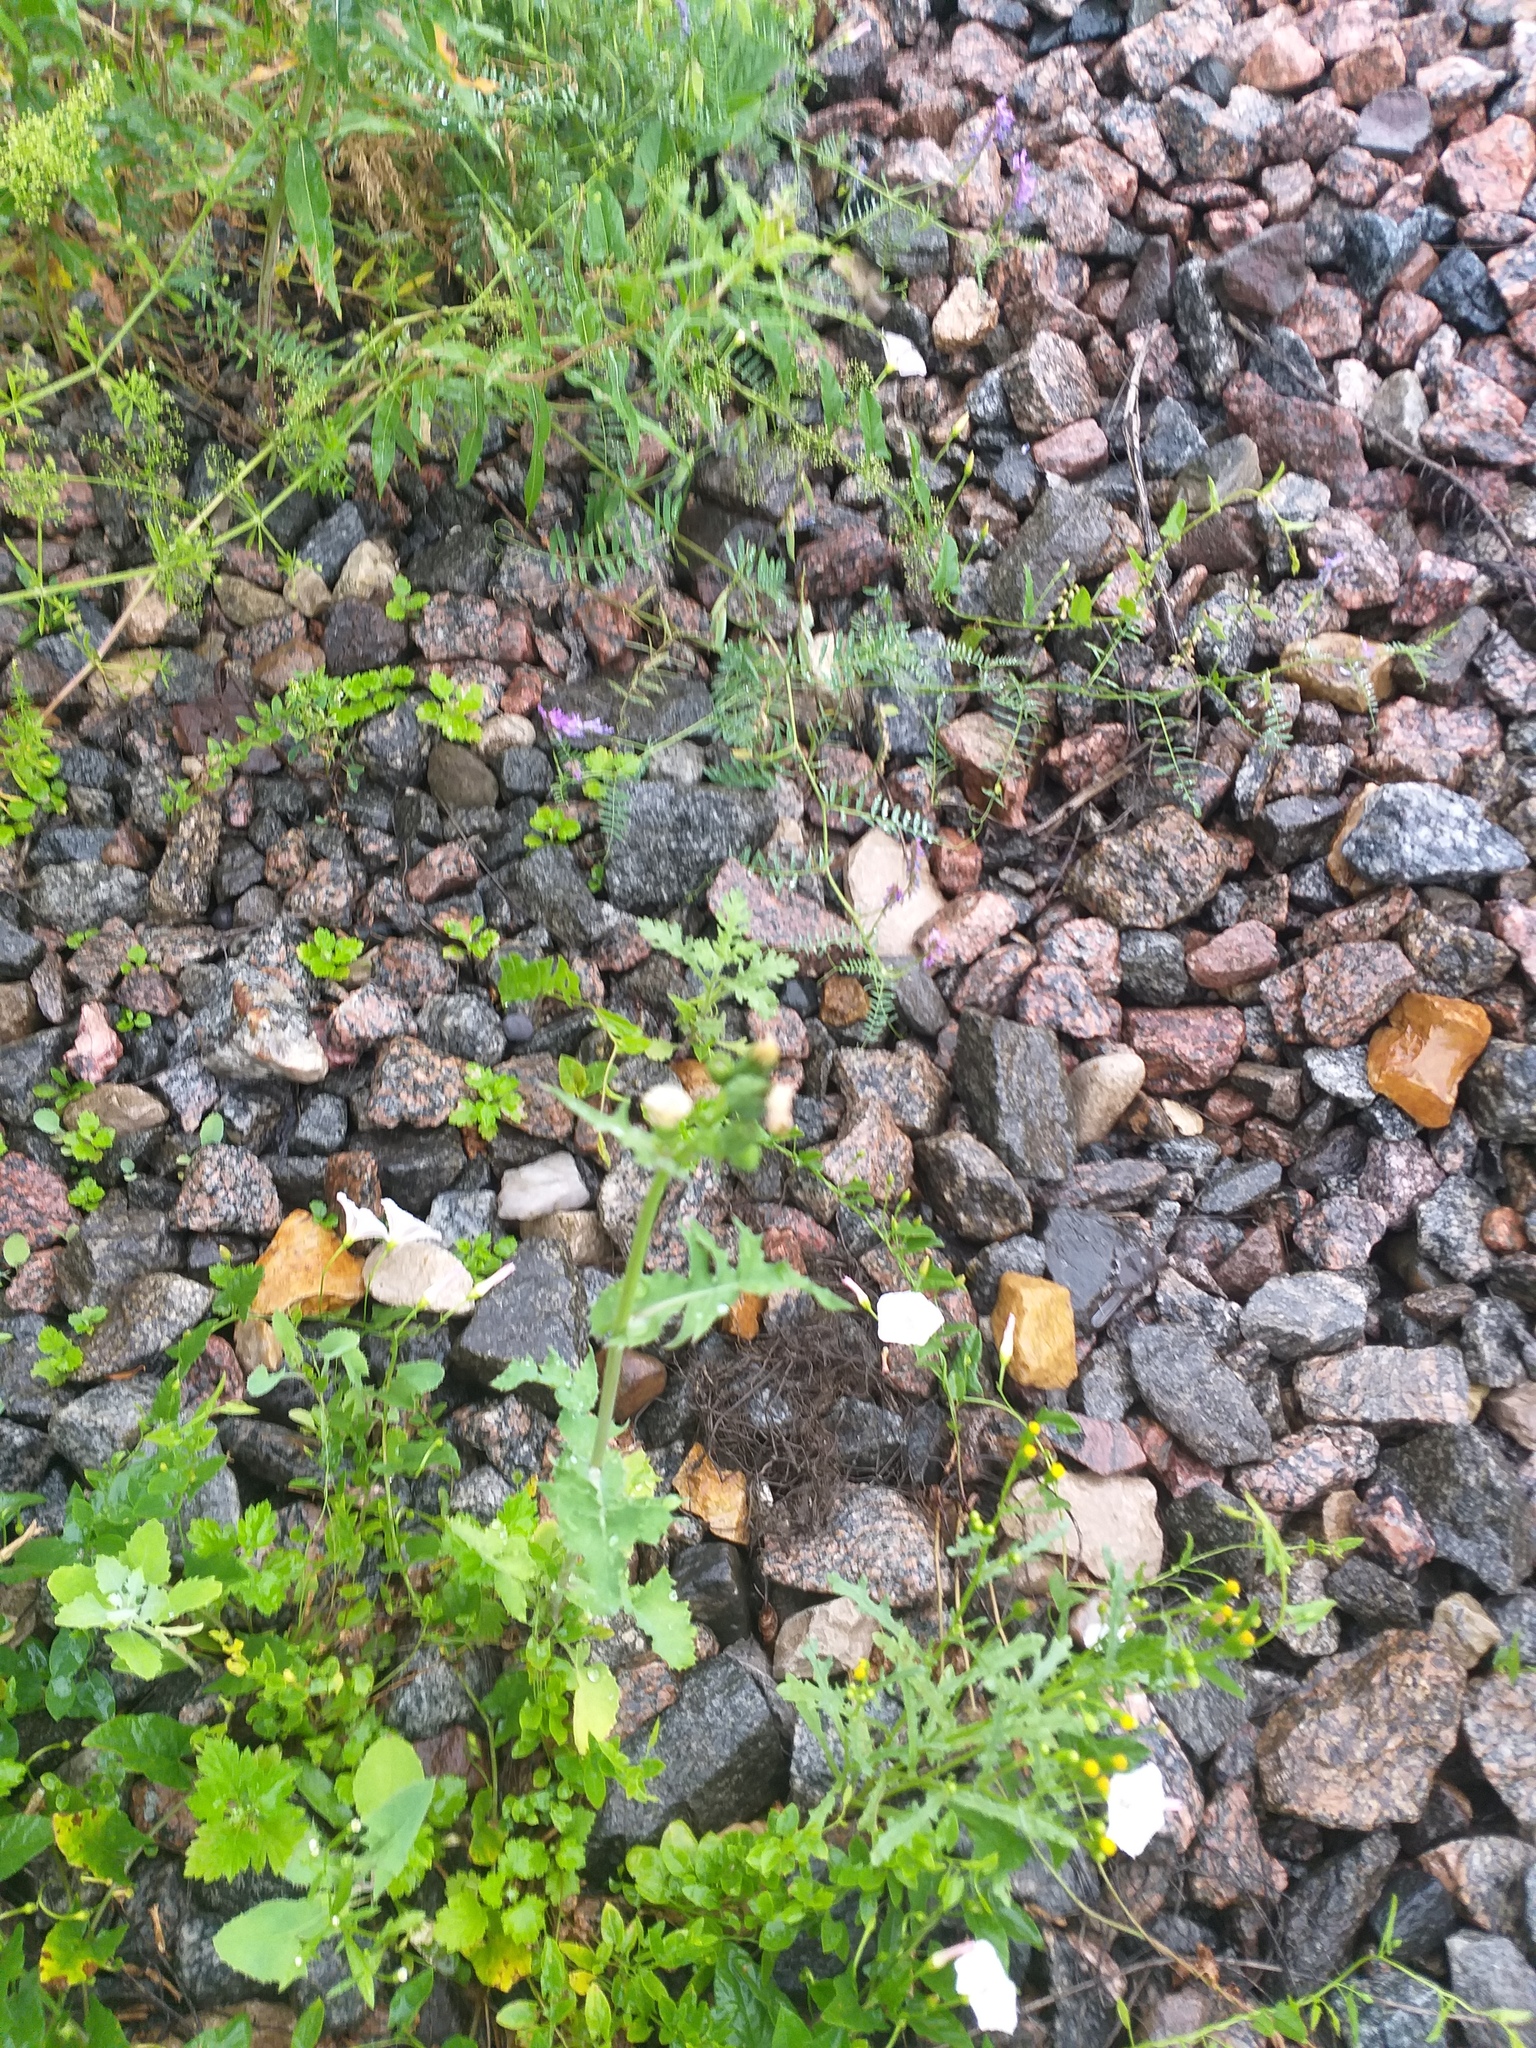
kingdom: Plantae
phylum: Tracheophyta
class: Magnoliopsida
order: Asterales
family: Asteraceae
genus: Sonchus
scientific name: Sonchus oleraceus
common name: Common sowthistle
